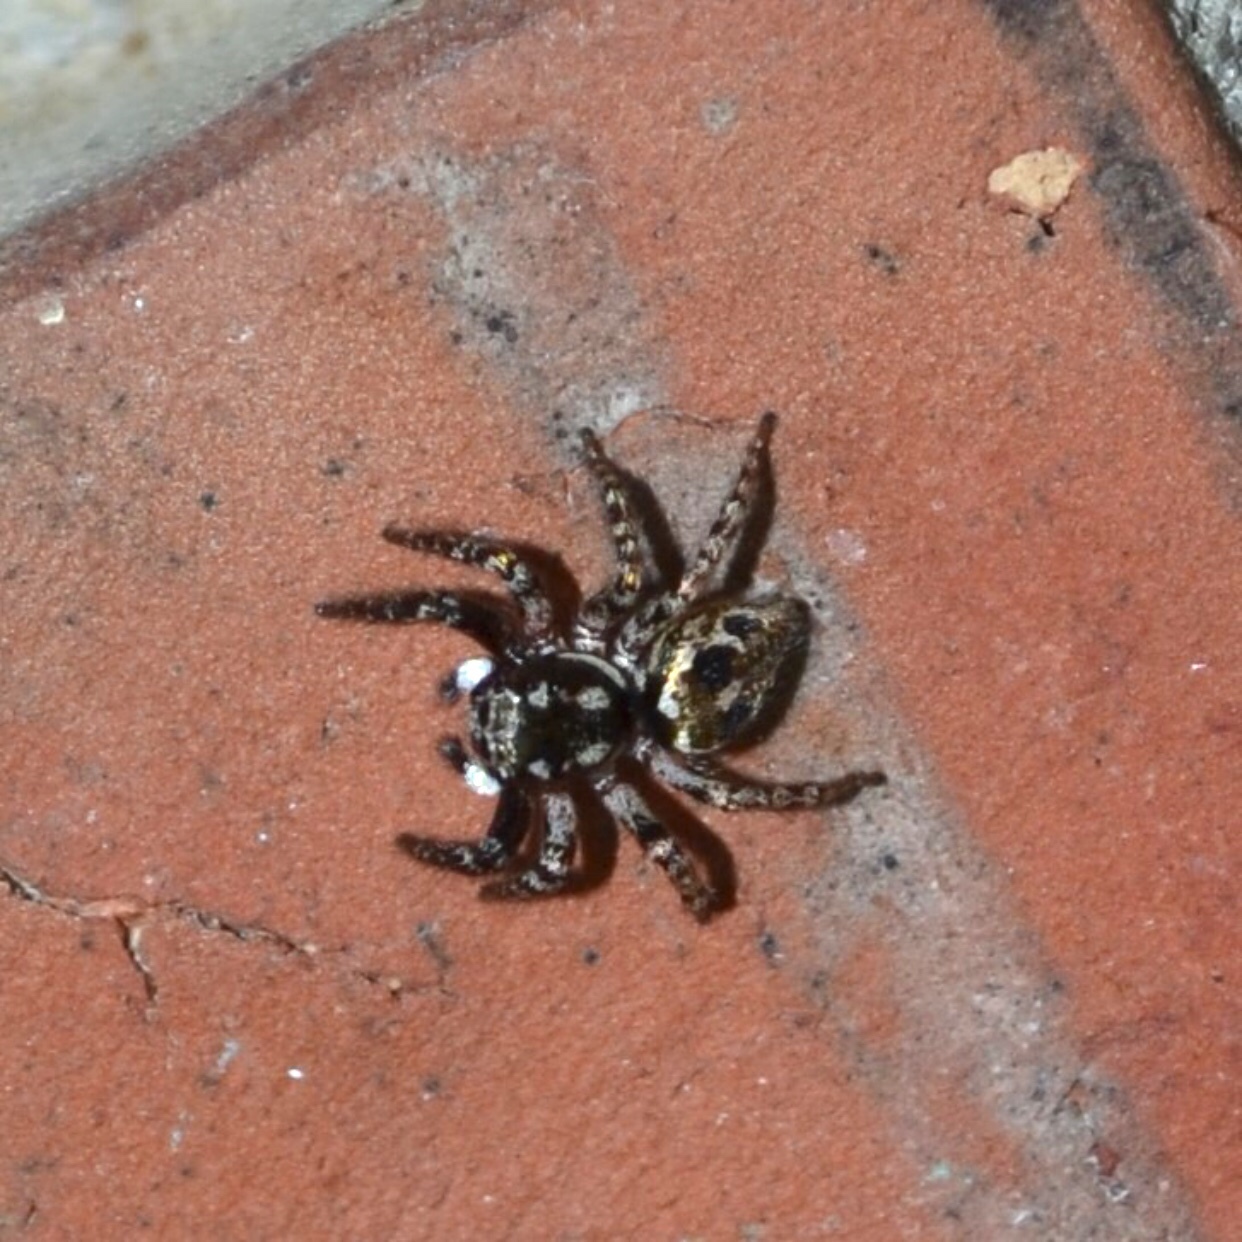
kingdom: Animalia
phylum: Arthropoda
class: Arachnida
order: Araneae
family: Salticidae
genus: Anasaitis
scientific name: Anasaitis canosa
